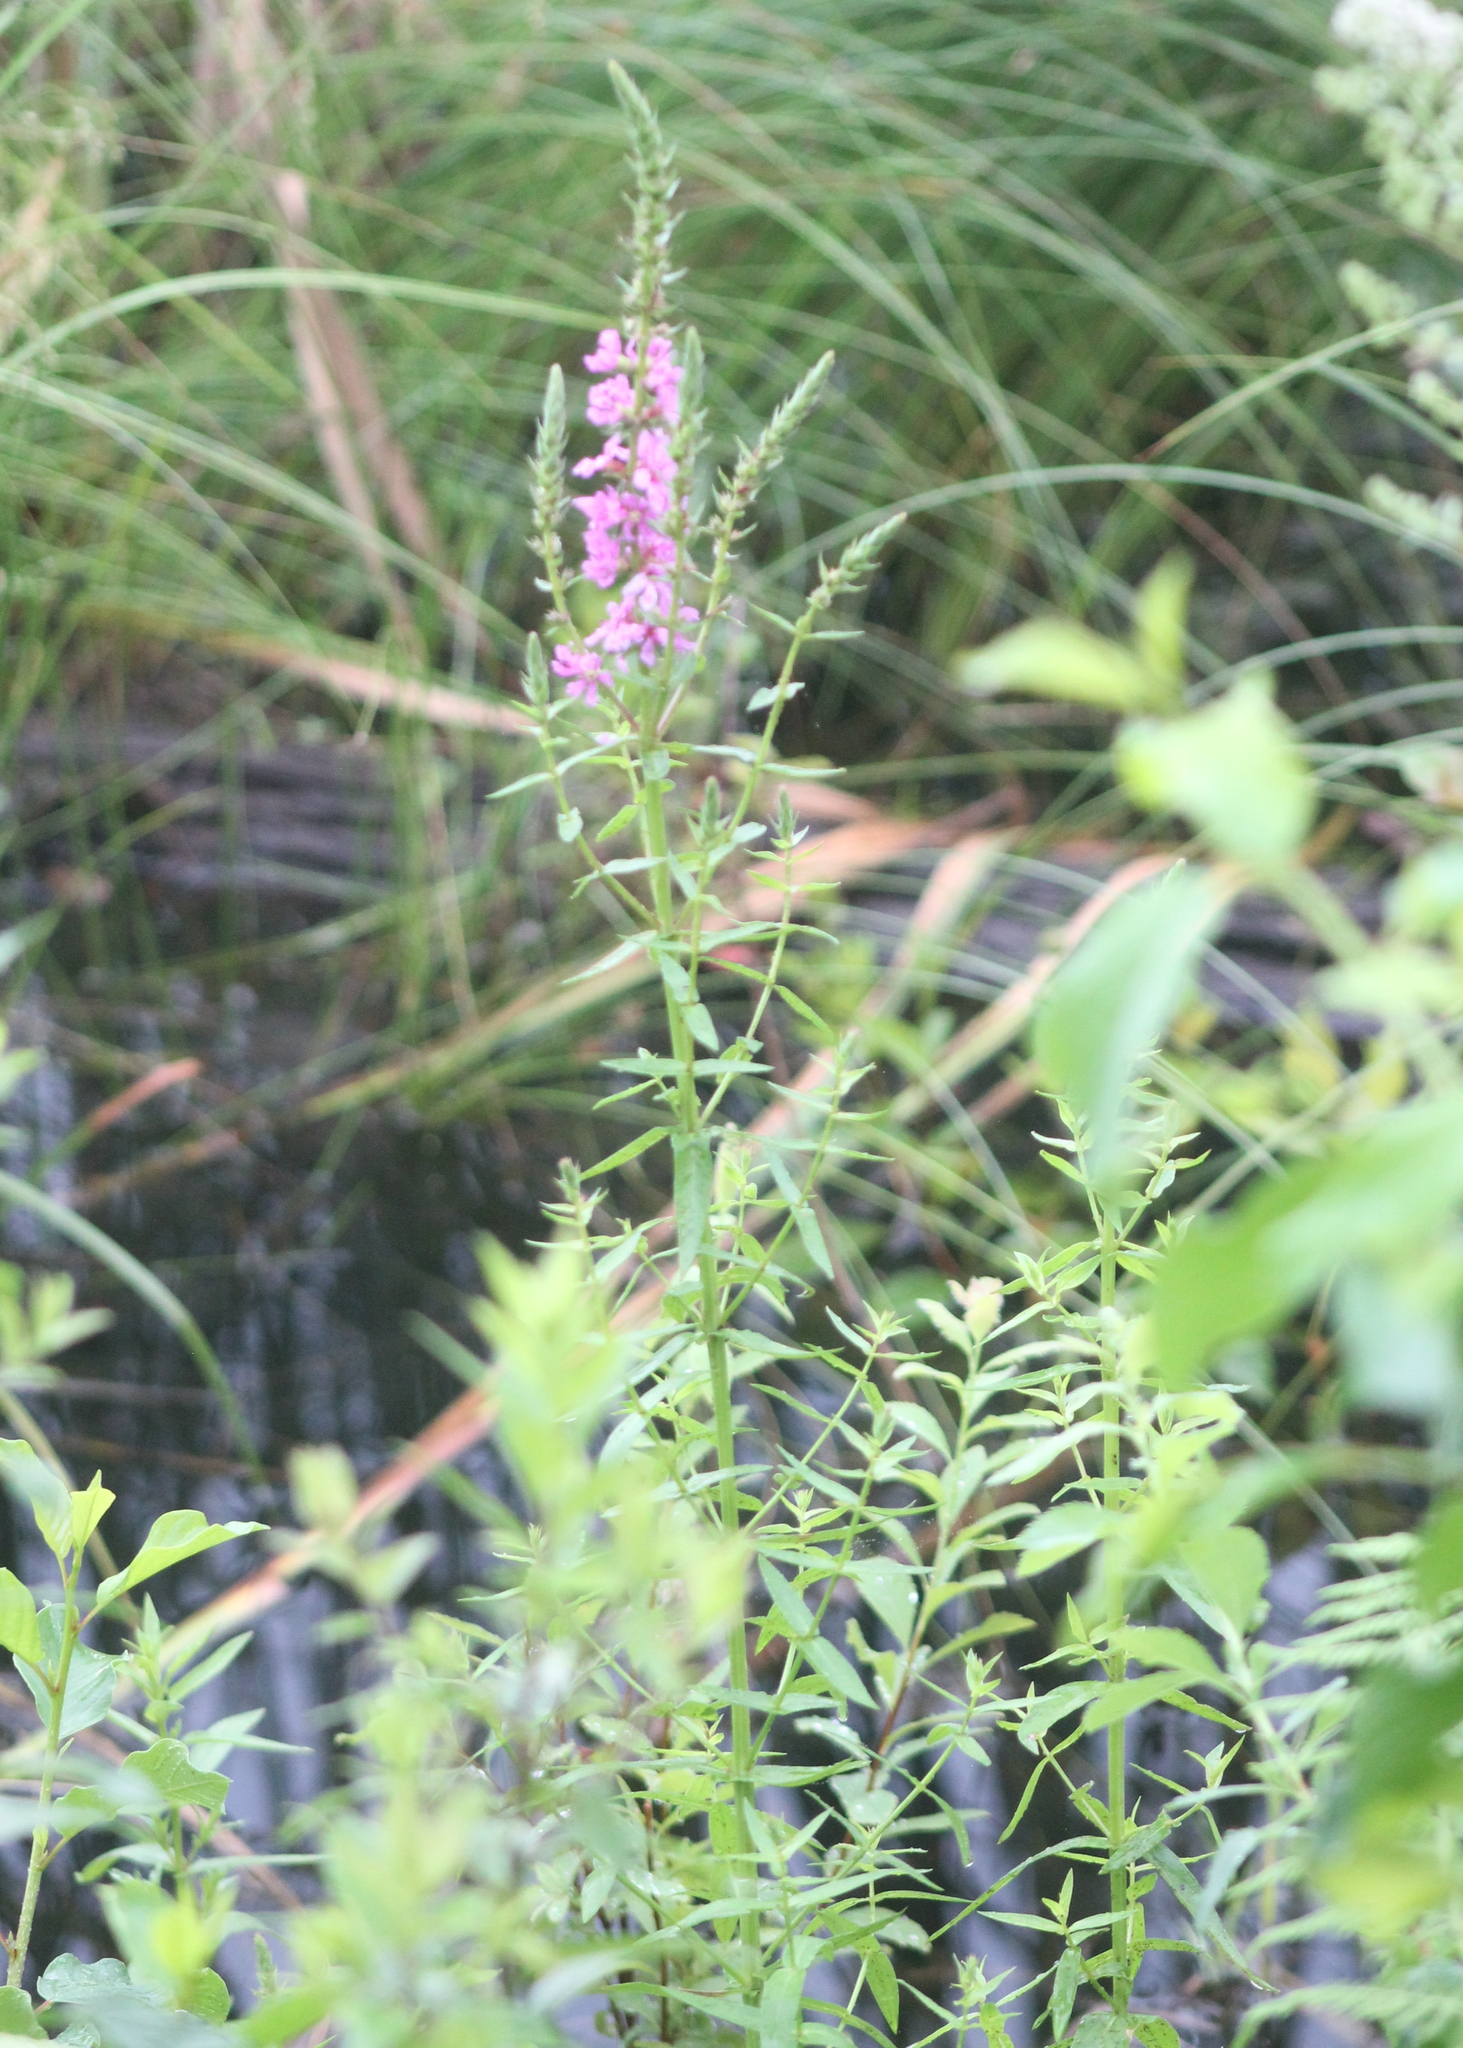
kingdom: Plantae
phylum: Tracheophyta
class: Magnoliopsida
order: Myrtales
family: Lythraceae
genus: Lythrum
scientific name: Lythrum salicaria
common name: Purple loosestrife
